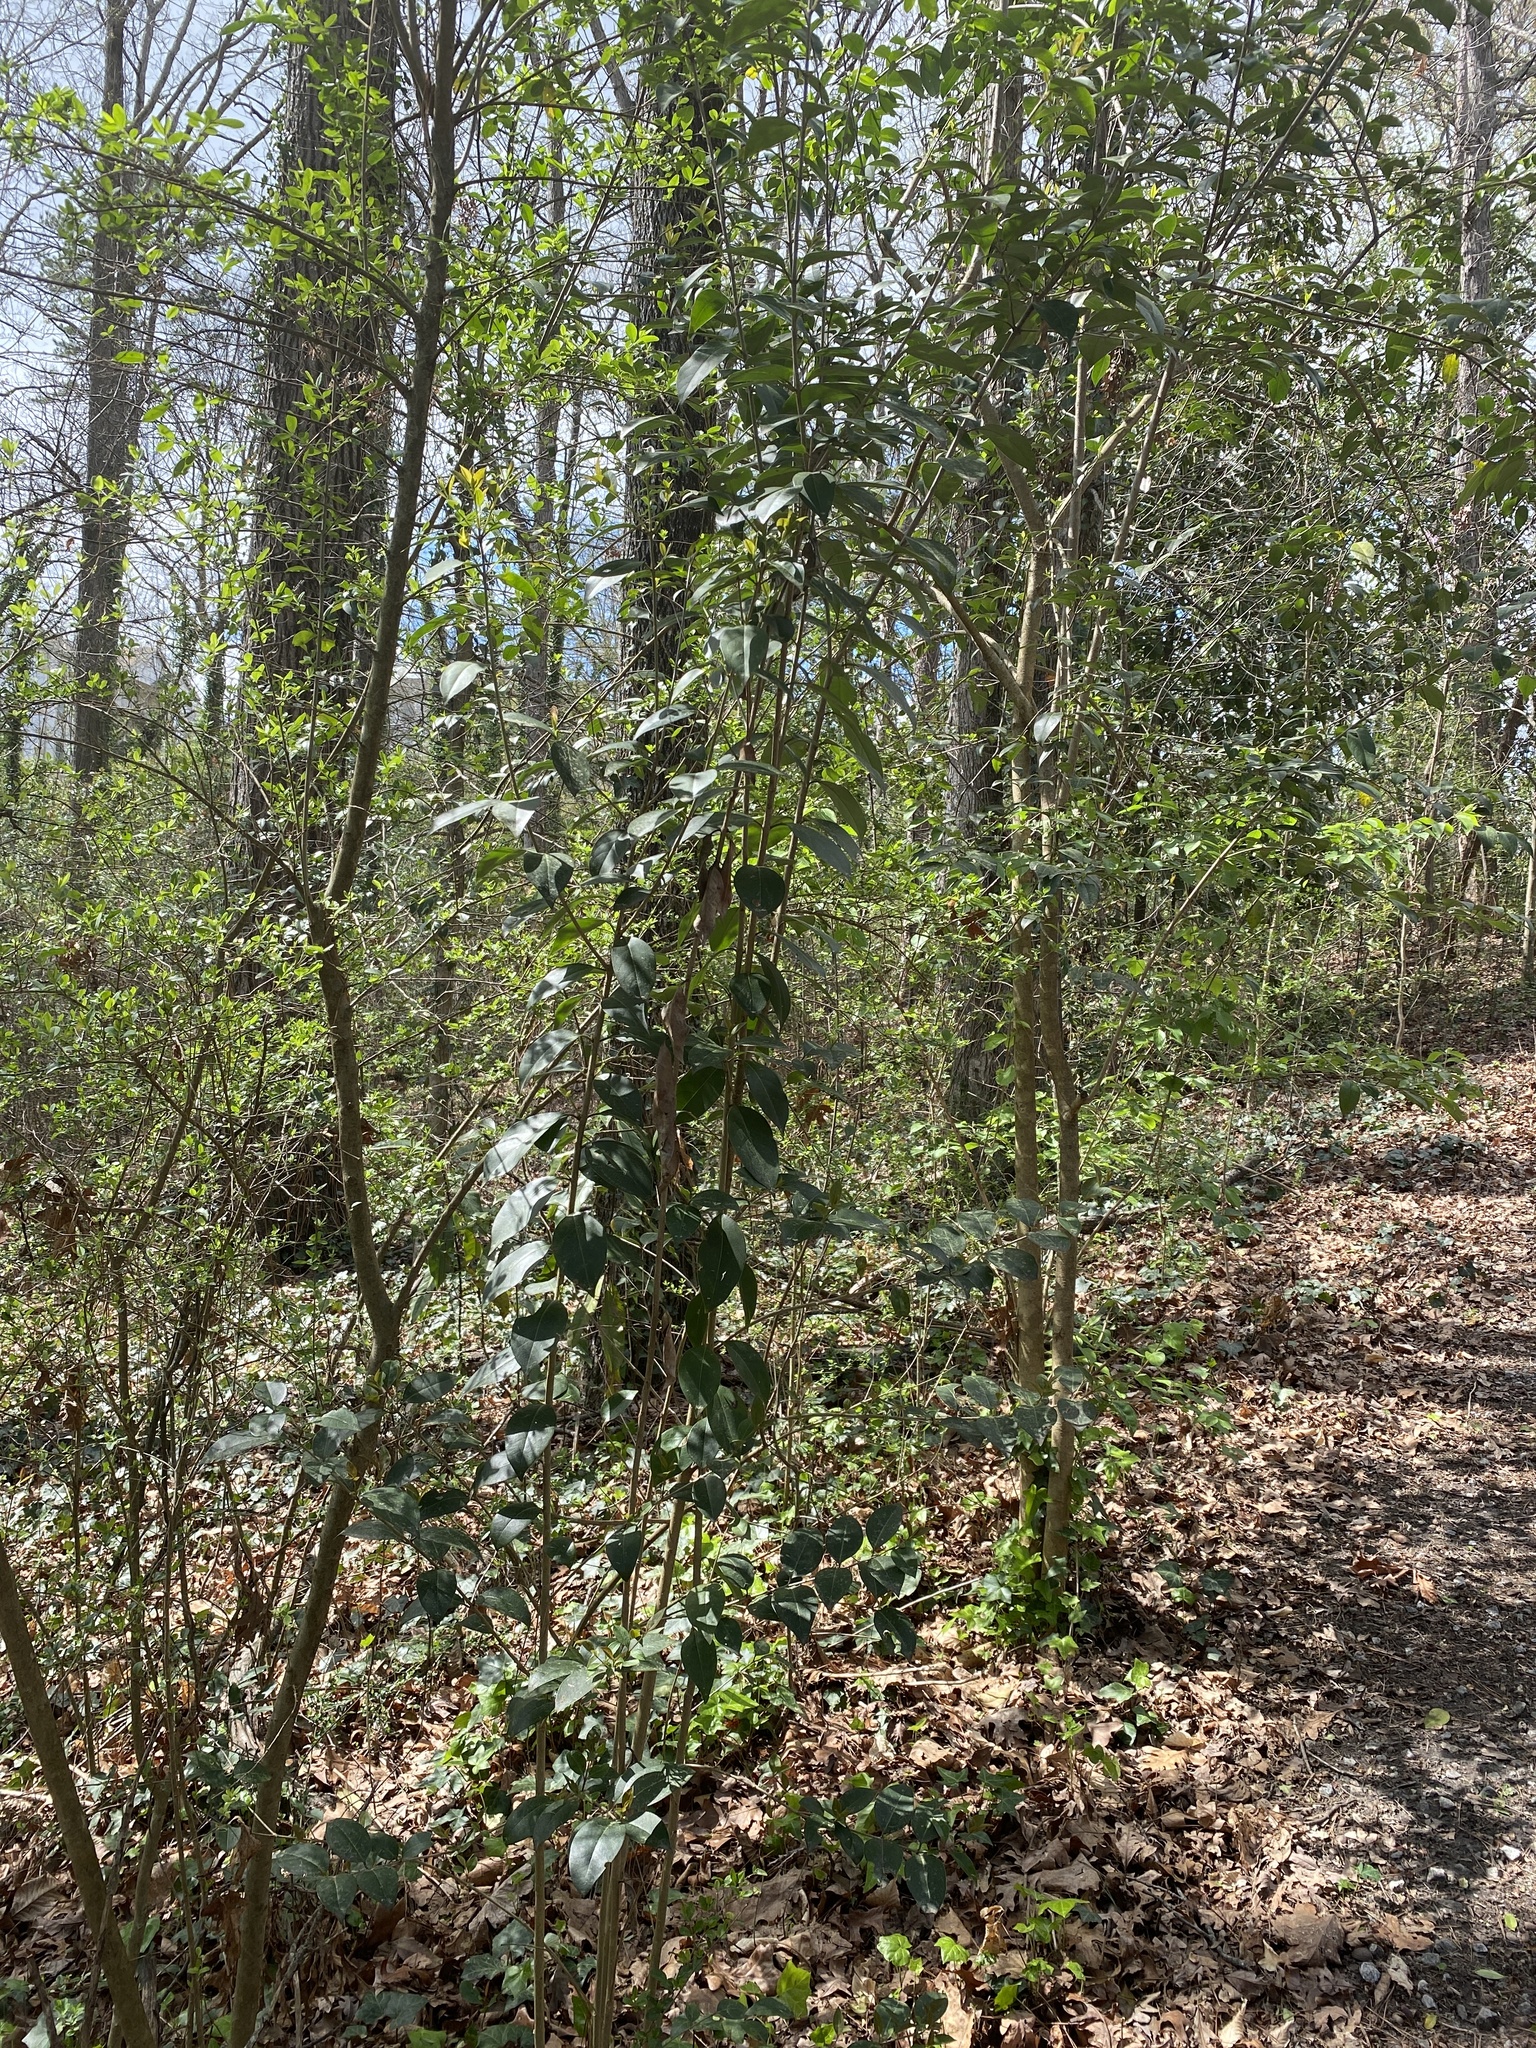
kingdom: Plantae
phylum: Tracheophyta
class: Magnoliopsida
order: Lamiales
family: Oleaceae
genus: Ligustrum
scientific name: Ligustrum lucidum
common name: Glossy privet
